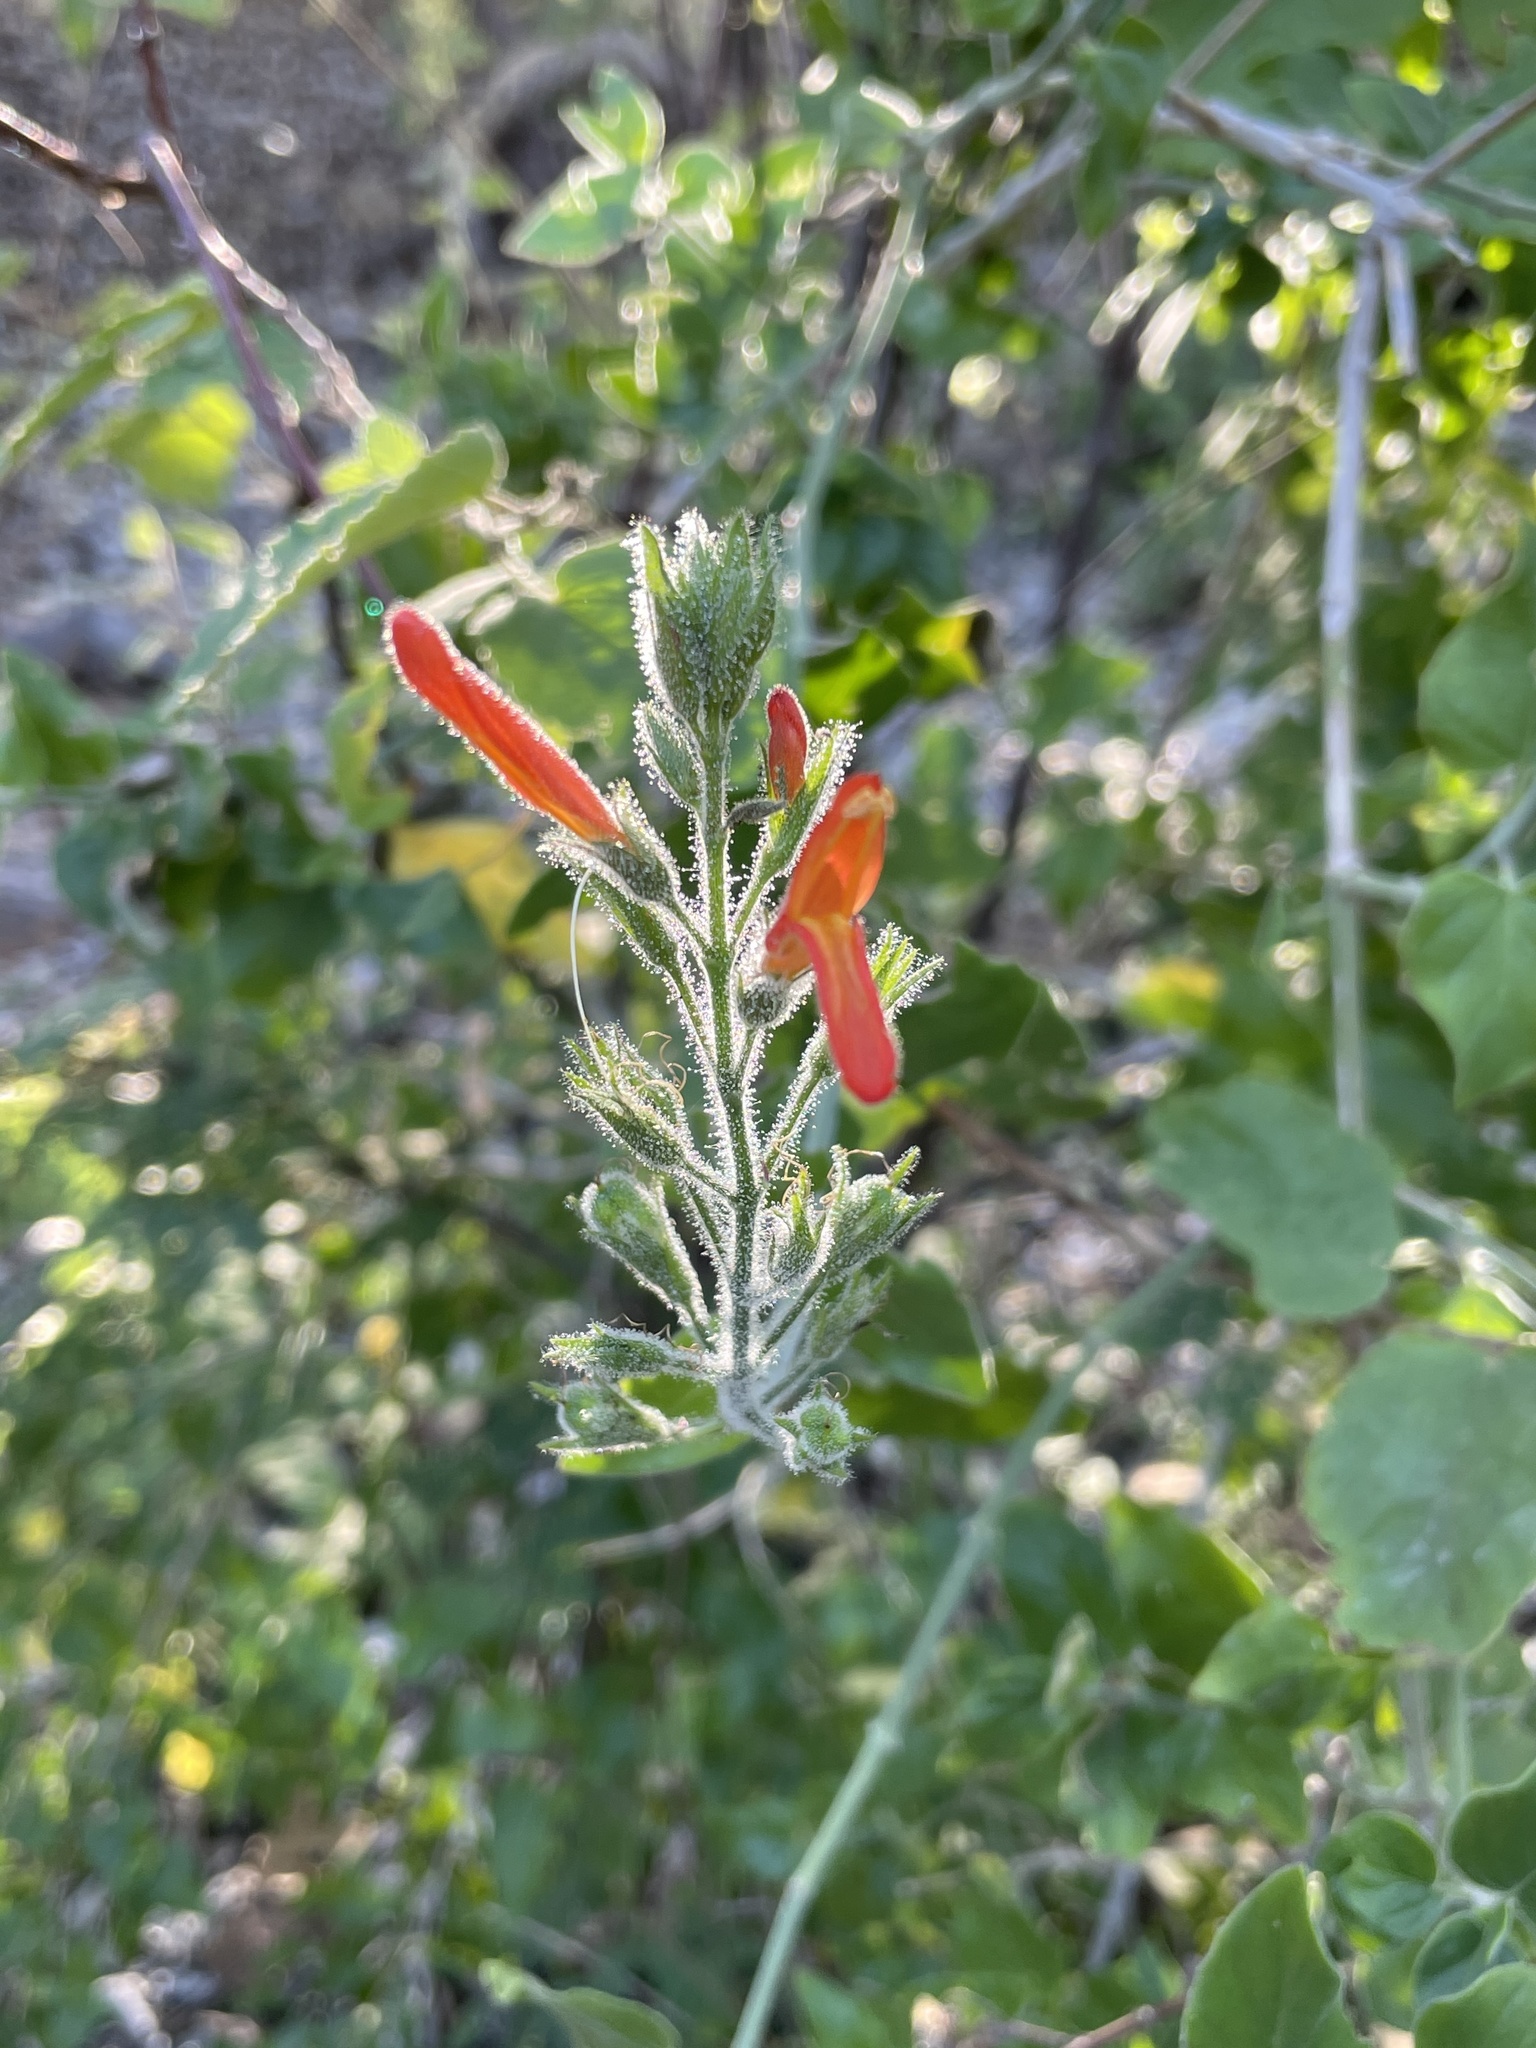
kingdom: Plantae
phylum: Tracheophyta
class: Magnoliopsida
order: Lamiales
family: Acanthaceae
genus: Justicia
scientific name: Justicia californica
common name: Chuparosa-honeysuckle
